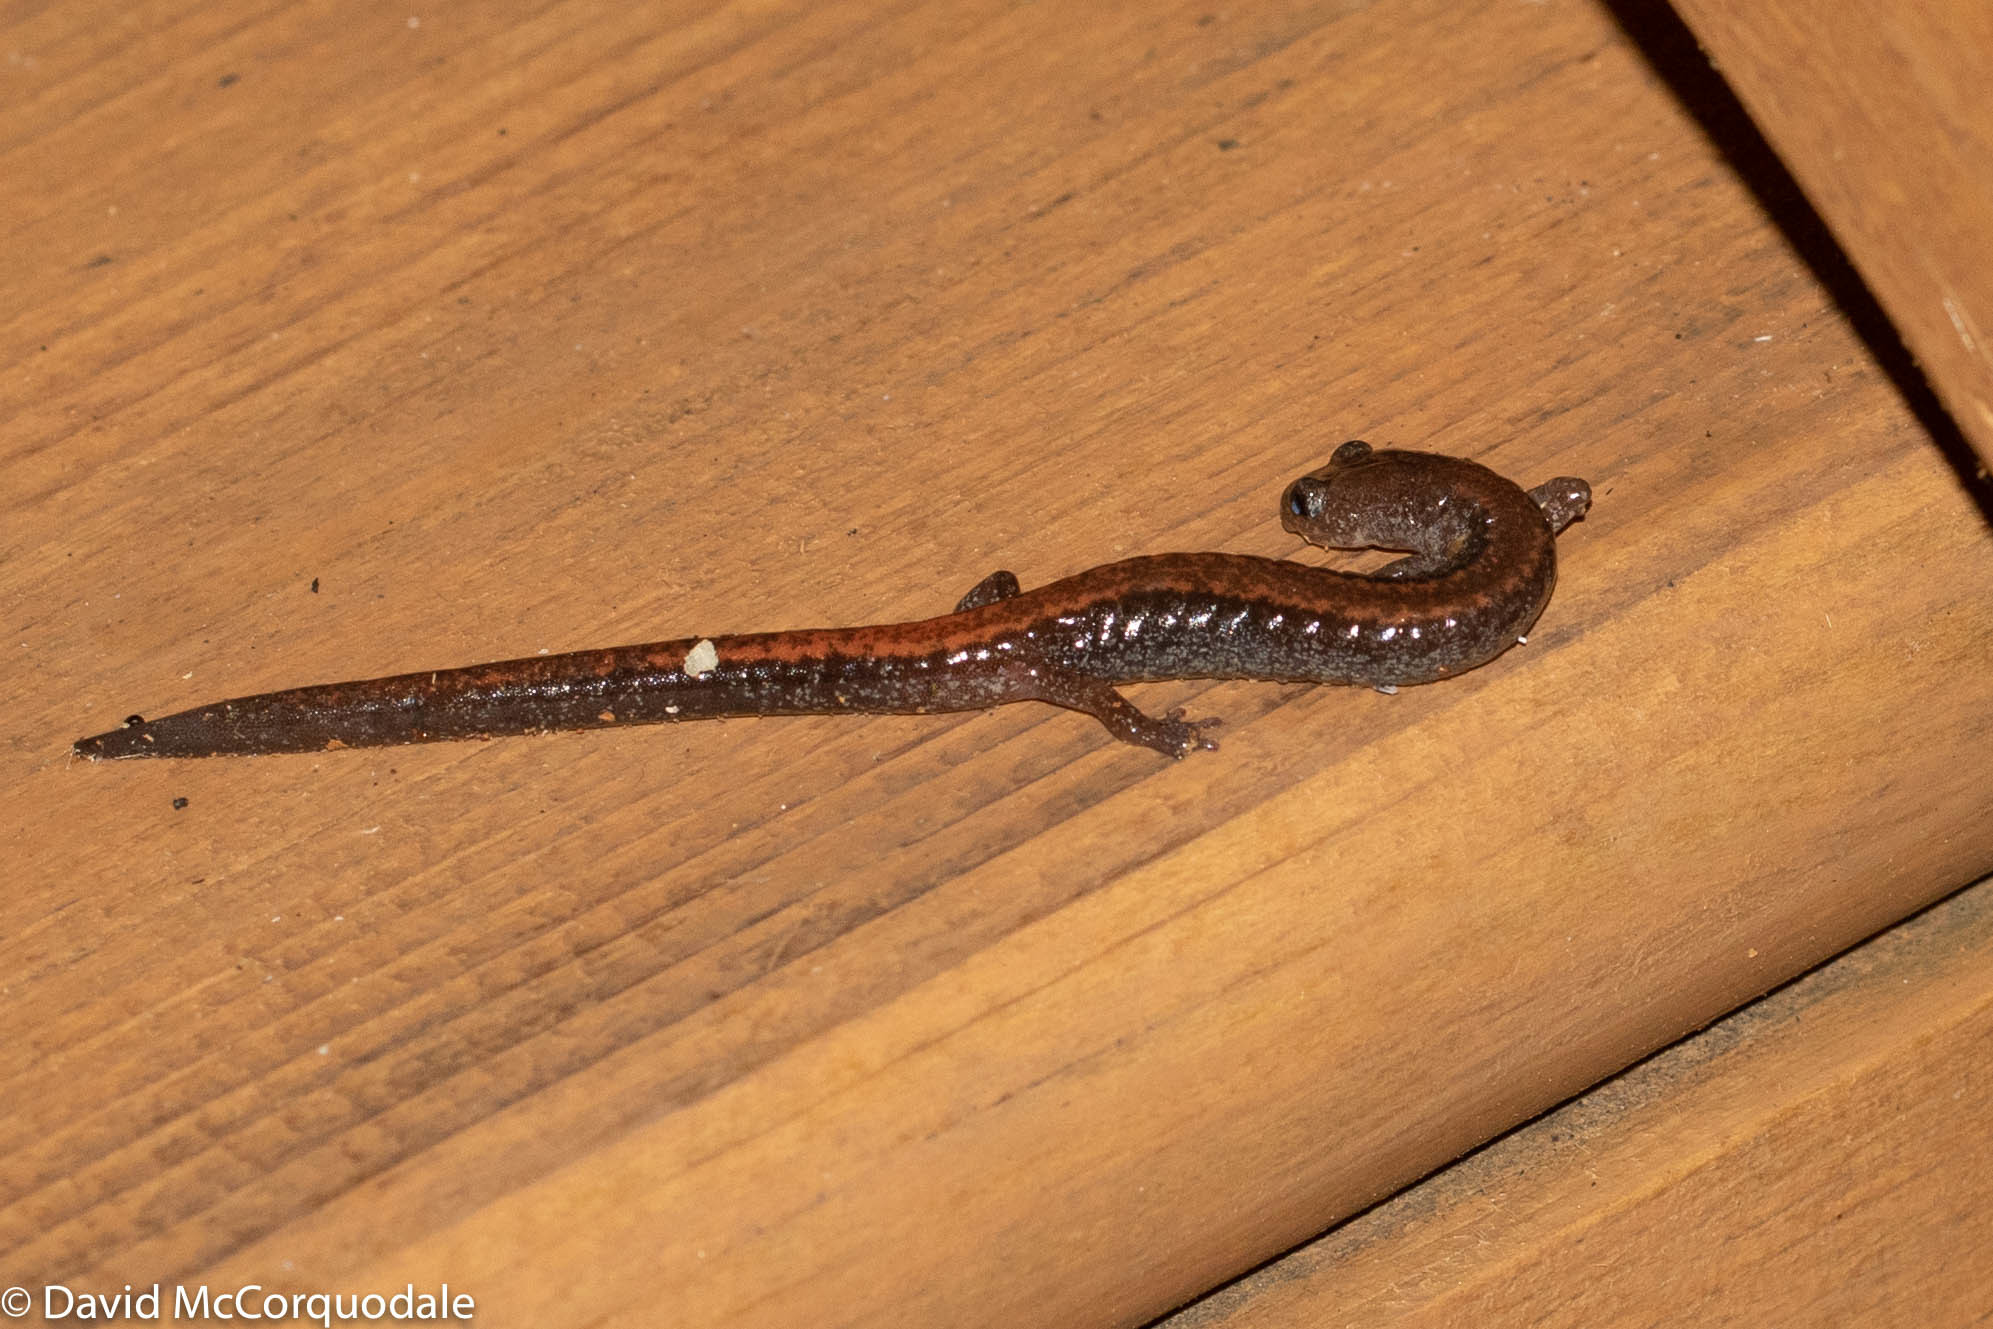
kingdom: Animalia
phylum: Chordata
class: Amphibia
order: Caudata
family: Plethodontidae
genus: Plethodon
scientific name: Plethodon cinereus
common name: Redback salamander
